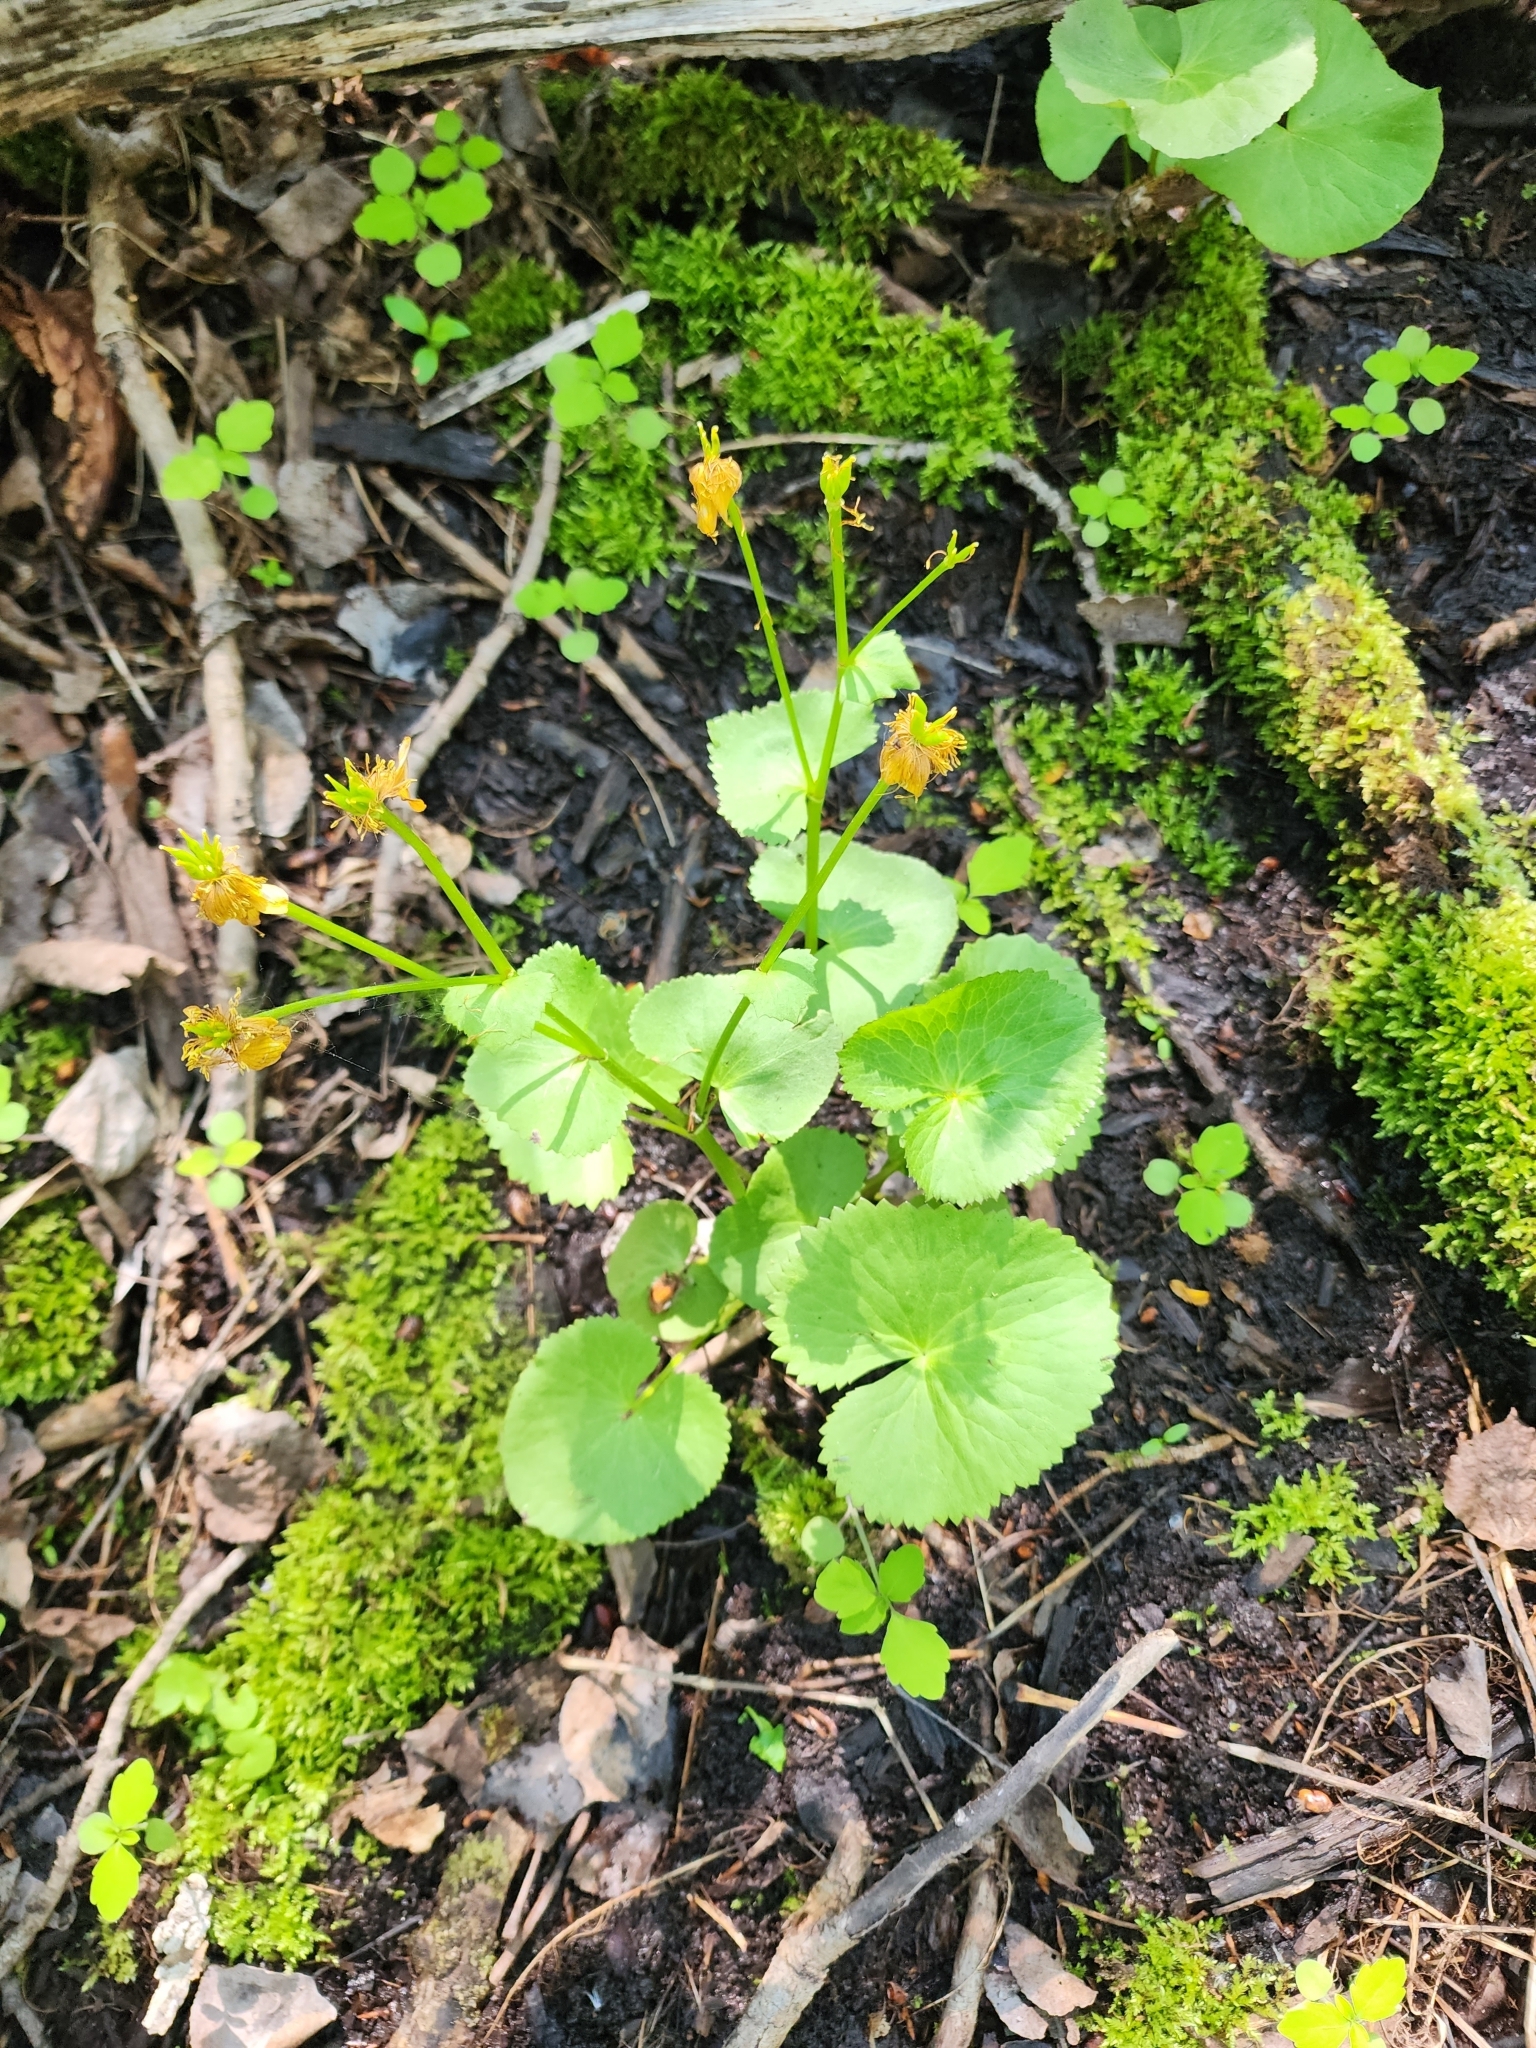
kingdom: Plantae
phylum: Tracheophyta
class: Magnoliopsida
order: Ranunculales
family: Ranunculaceae
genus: Caltha
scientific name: Caltha palustris
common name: Marsh marigold
